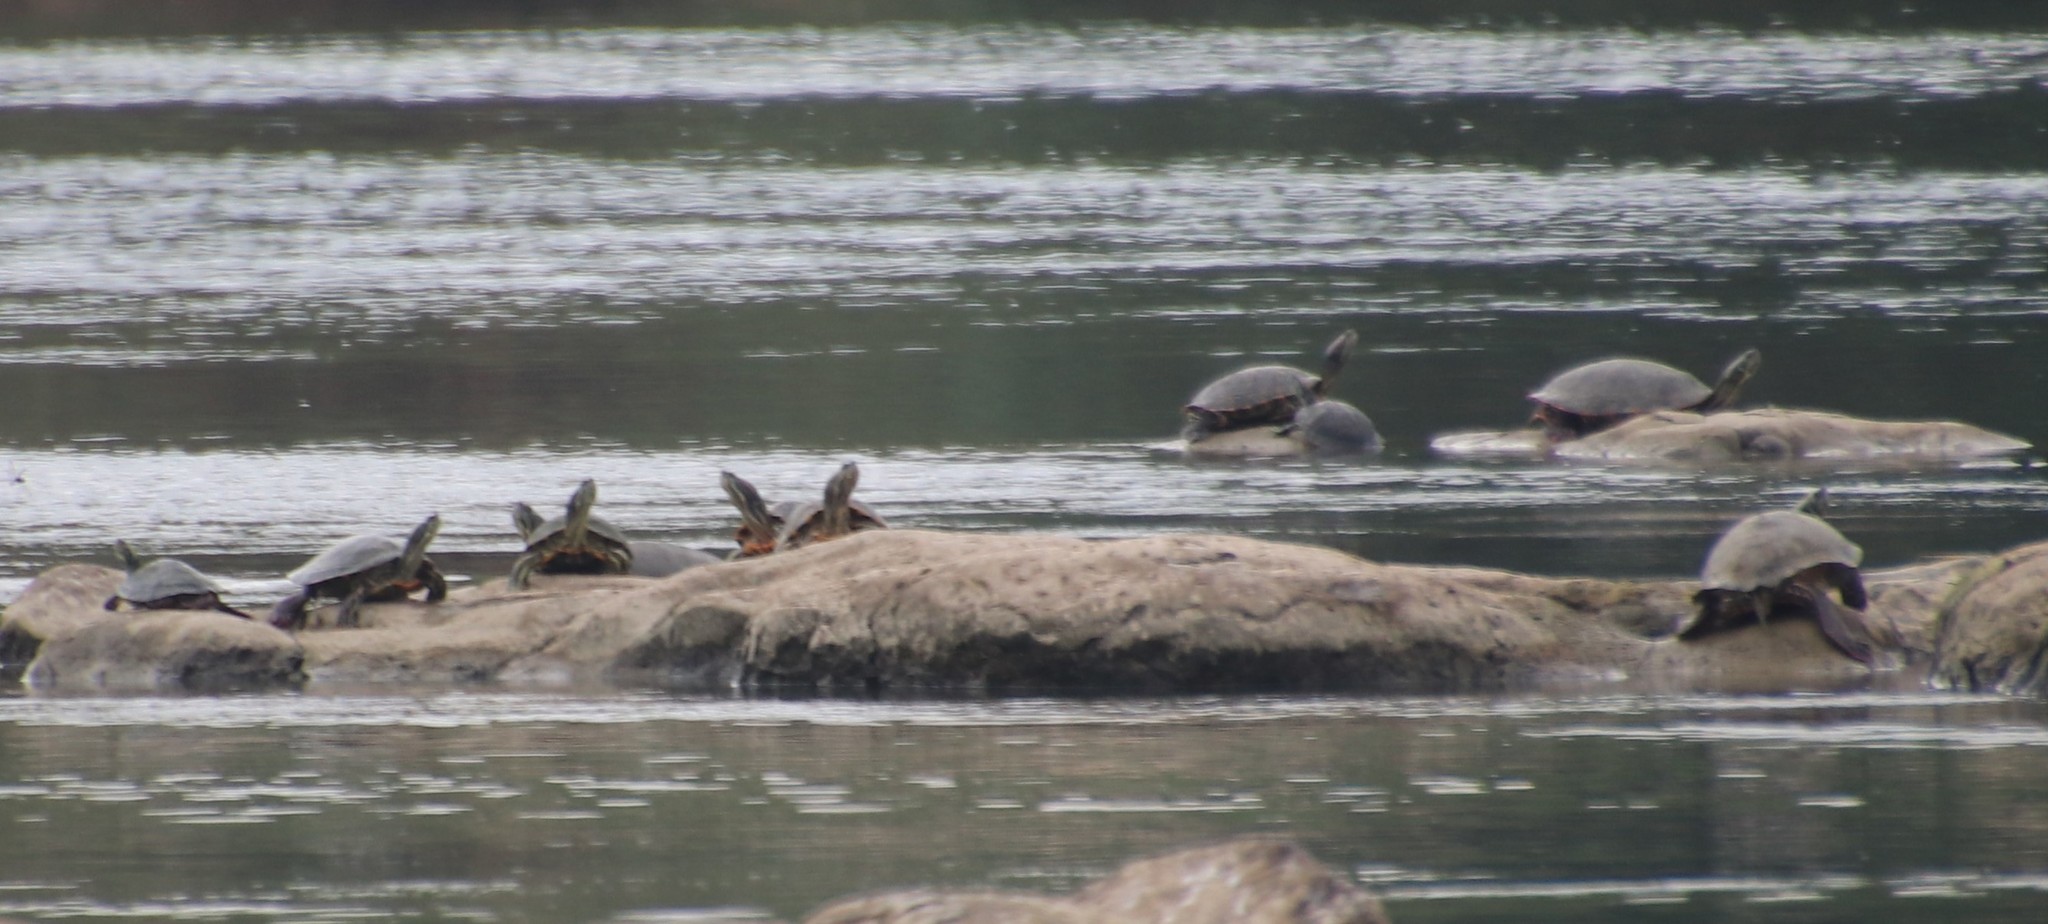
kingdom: Animalia
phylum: Chordata
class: Testudines
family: Emydidae
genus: Pseudemys
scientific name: Pseudemys gorzugi
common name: Rio grande cooter
